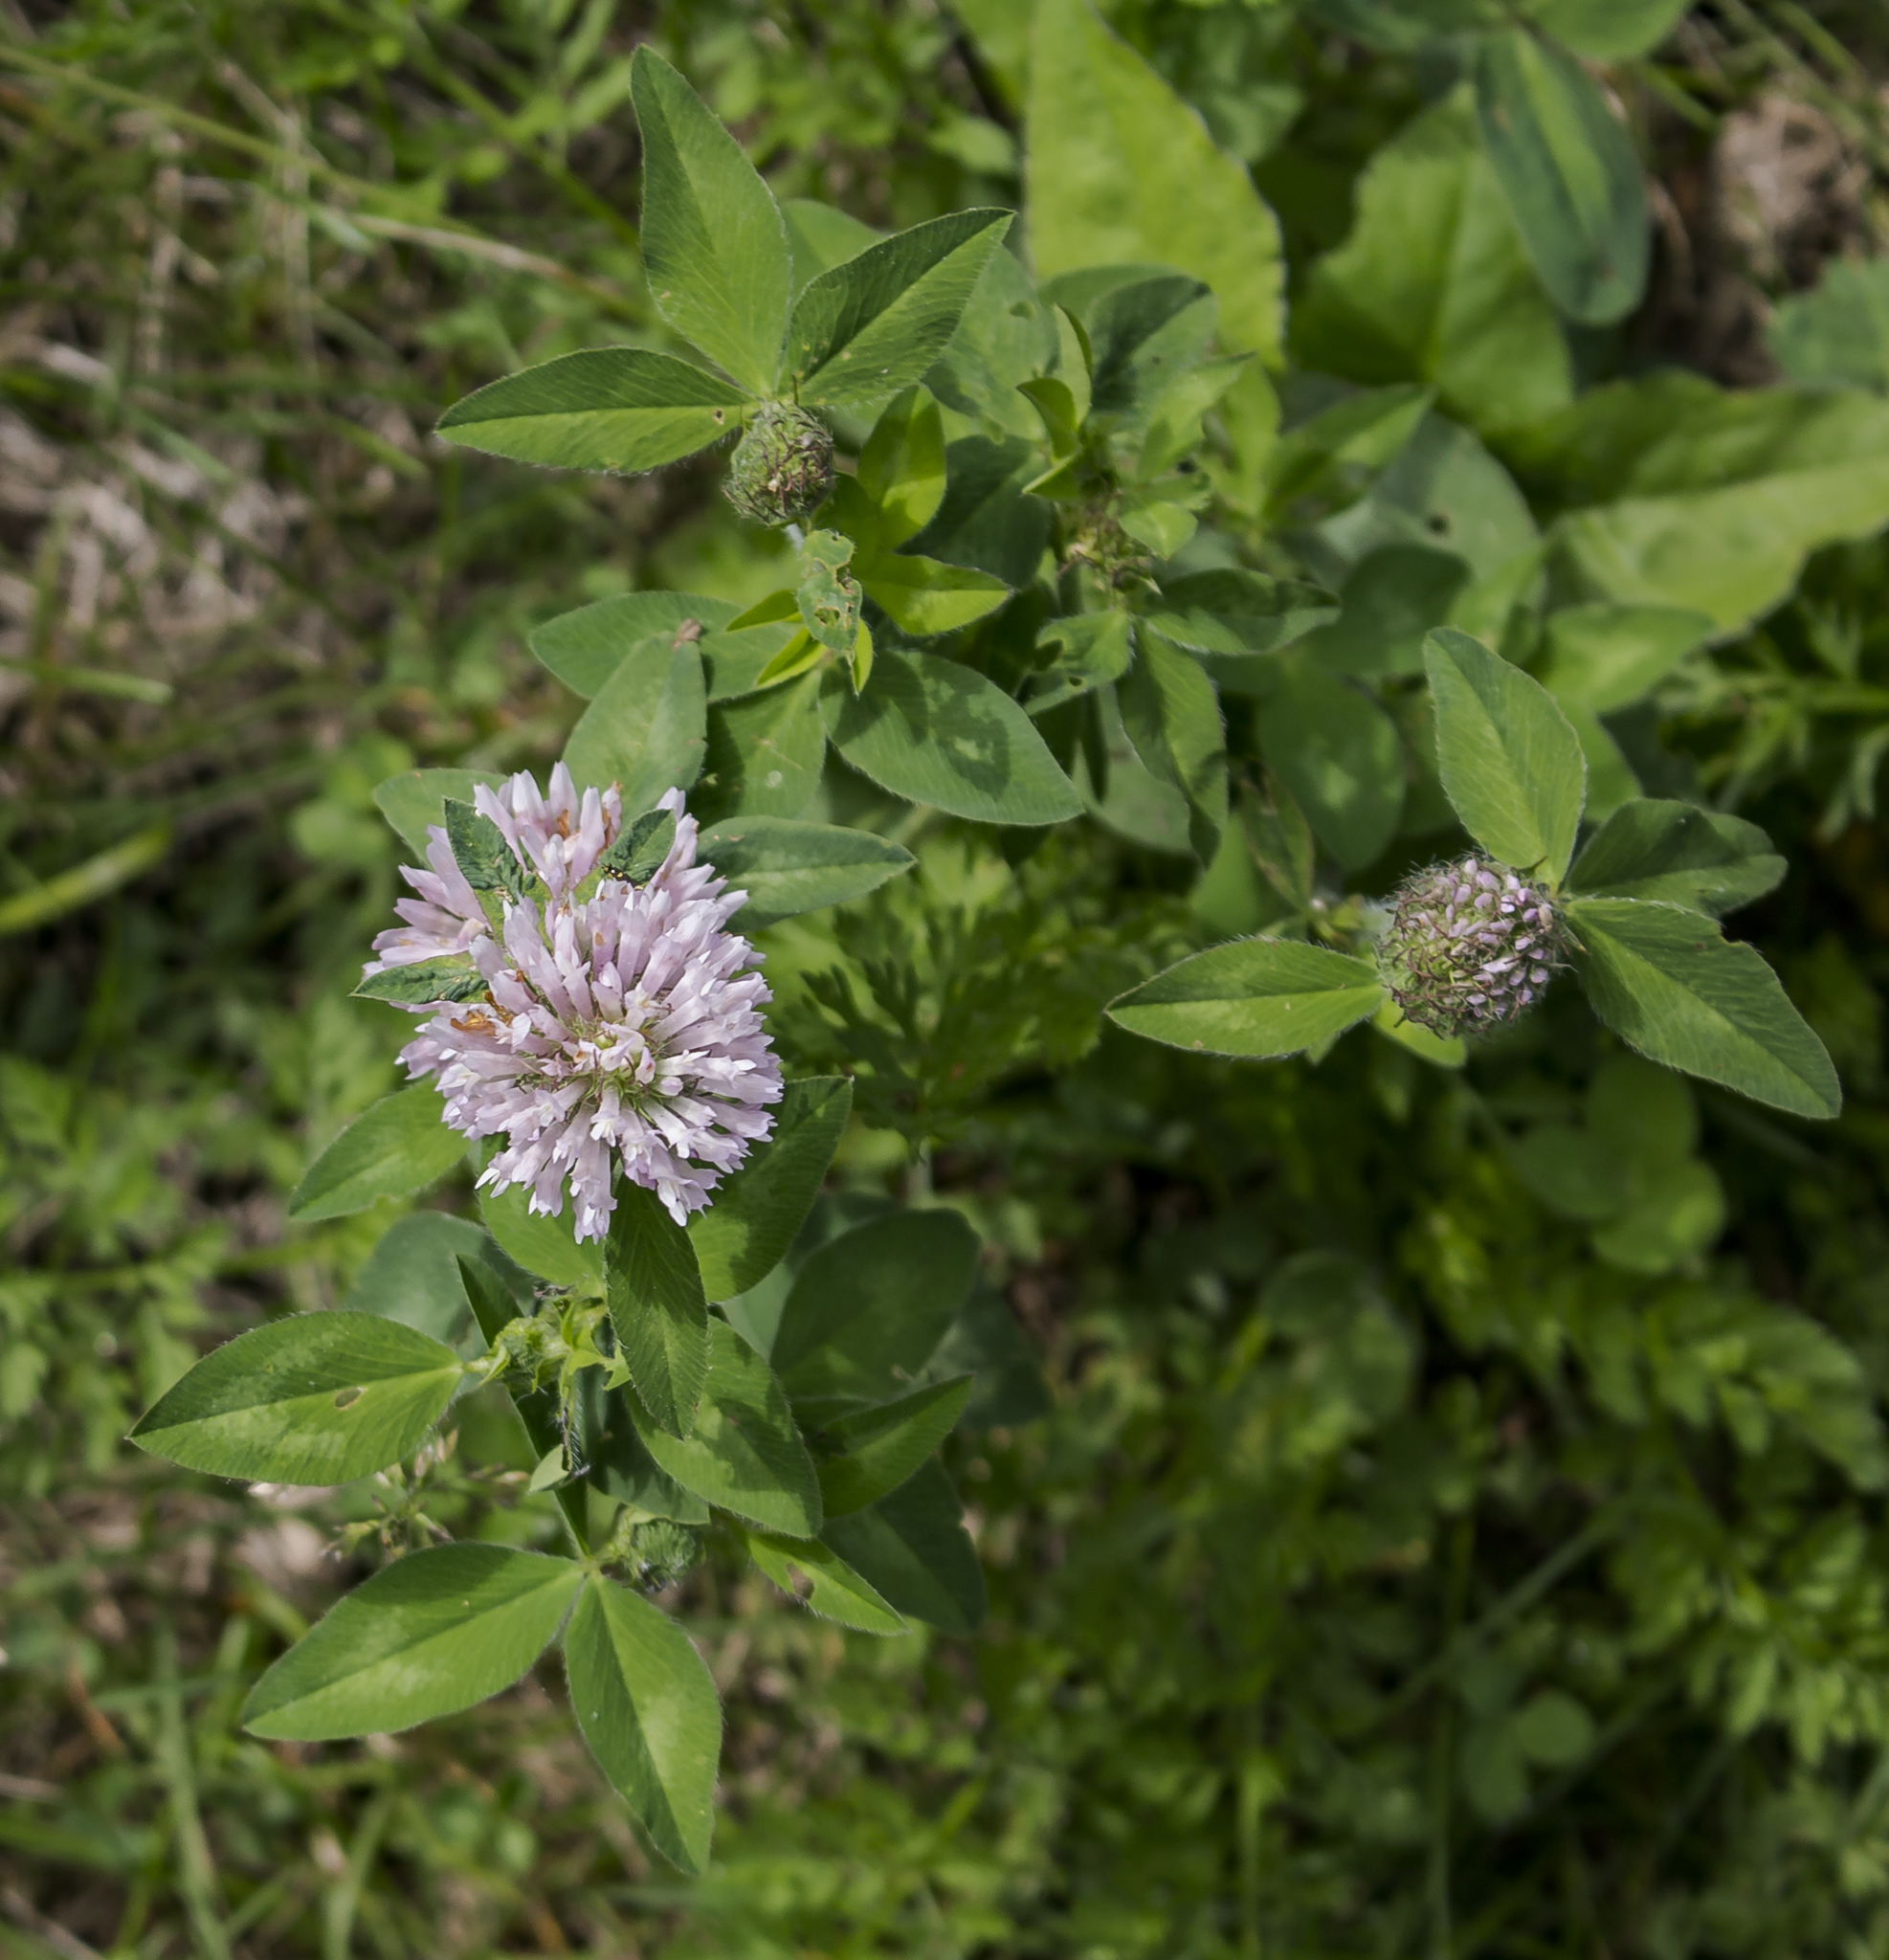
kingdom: Plantae
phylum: Tracheophyta
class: Magnoliopsida
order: Fabales
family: Fabaceae
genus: Trifolium
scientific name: Trifolium pratense
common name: Red clover
